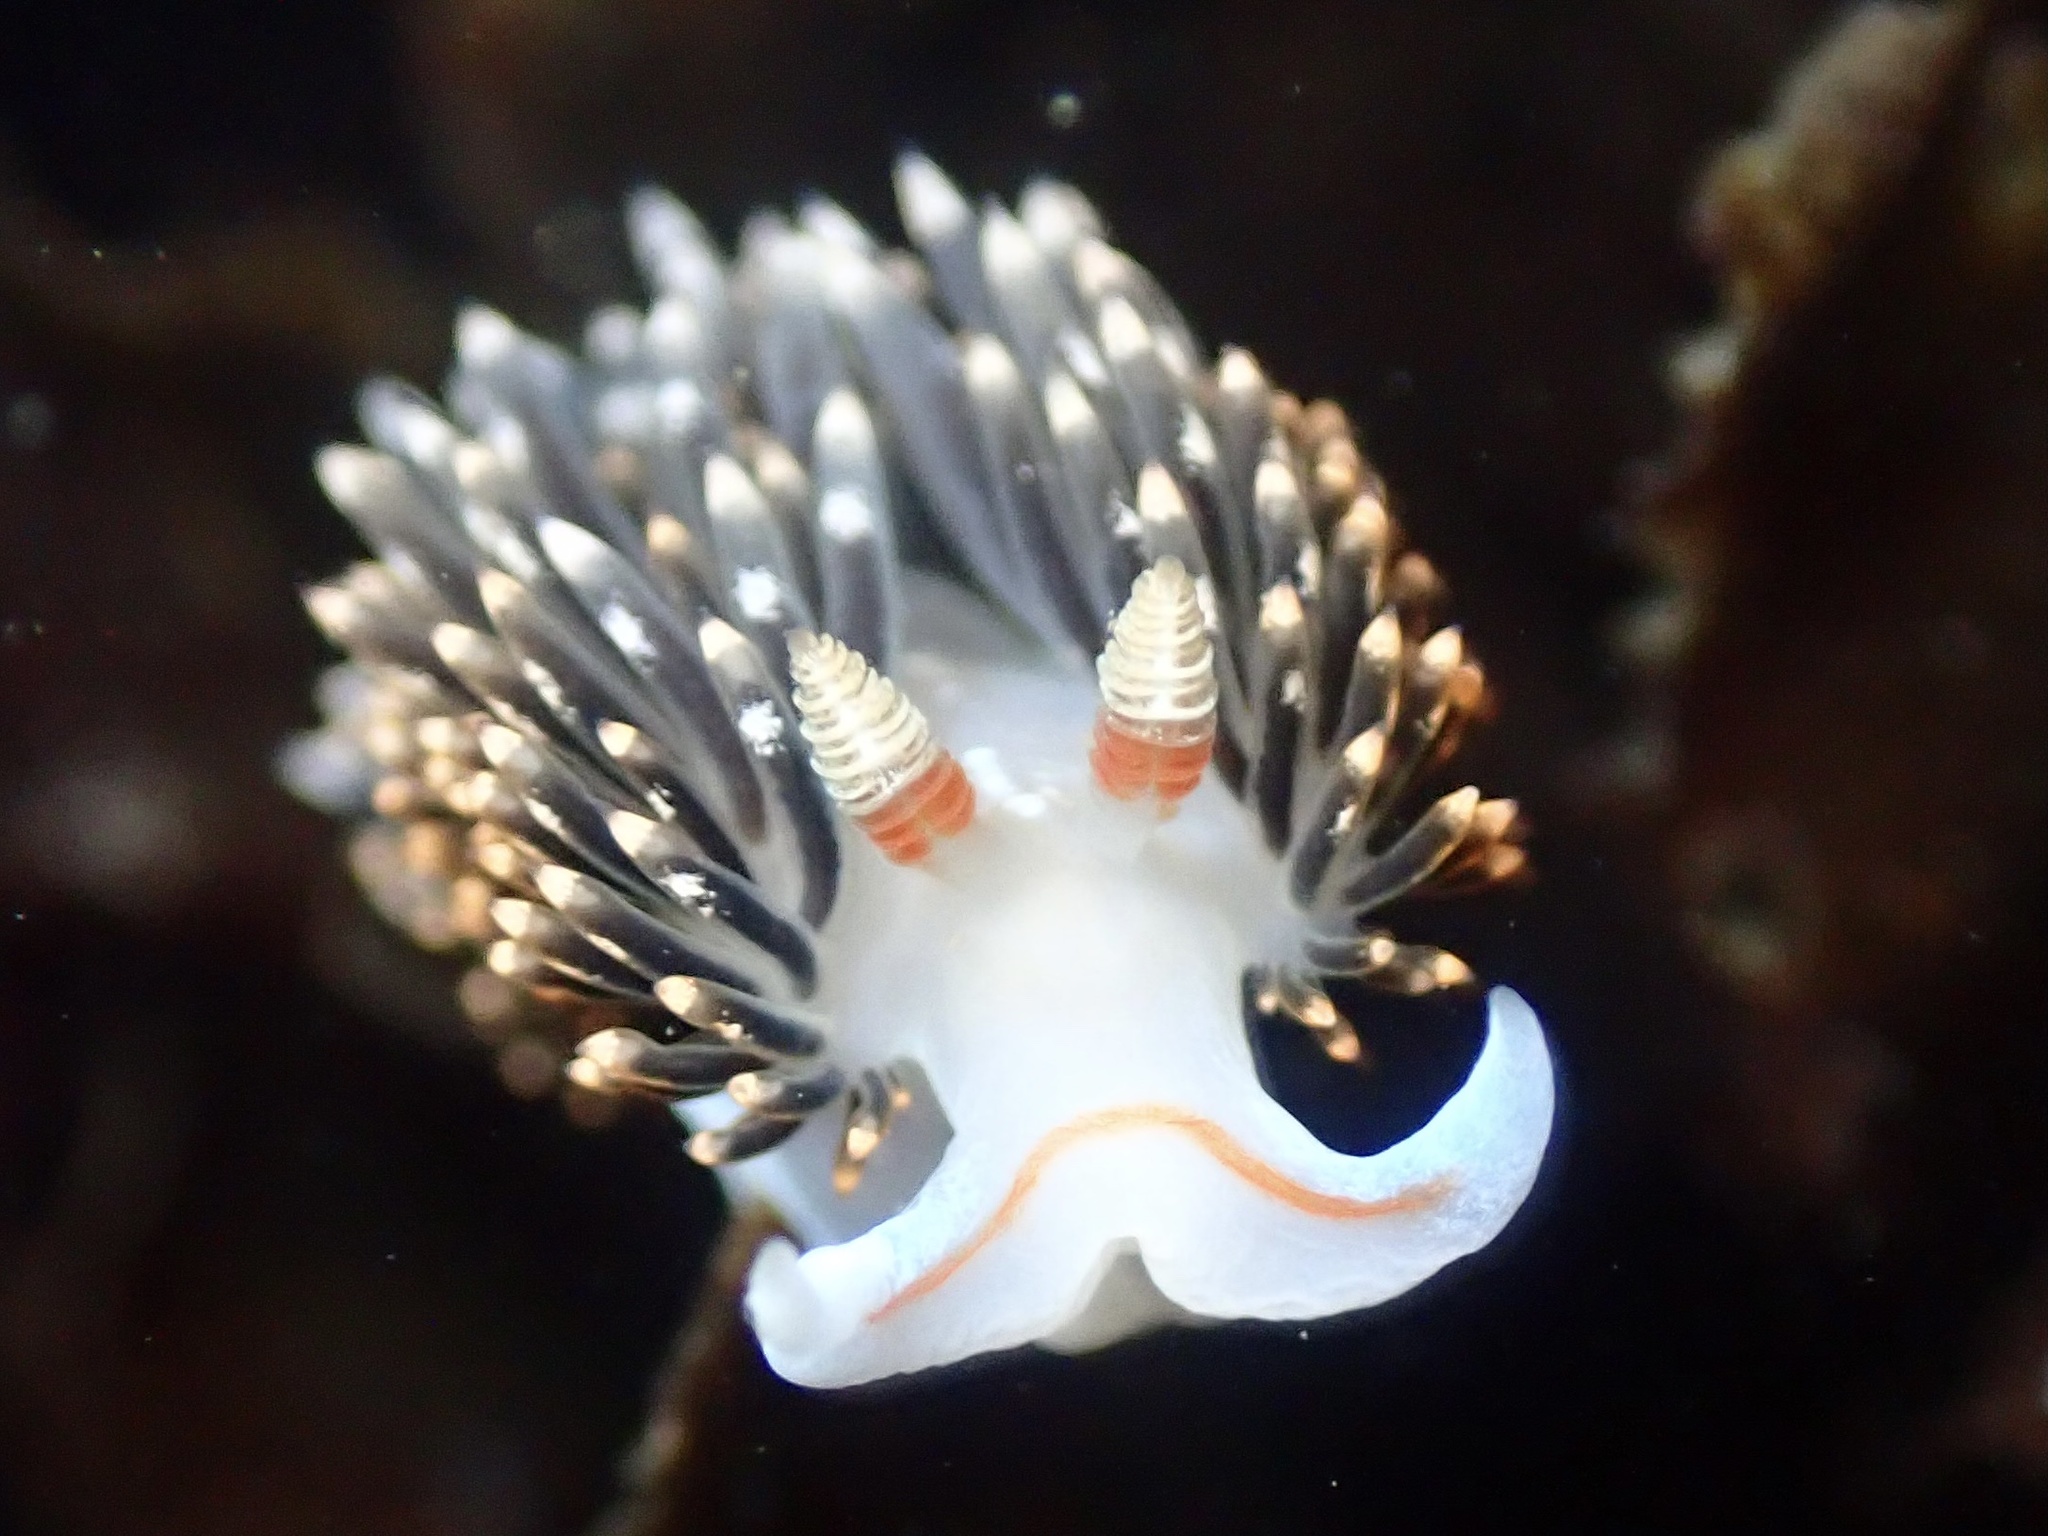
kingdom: Animalia
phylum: Mollusca
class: Gastropoda
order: Nudibranchia
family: Facelinidae
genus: Phidiana
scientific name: Phidiana hiltoni
